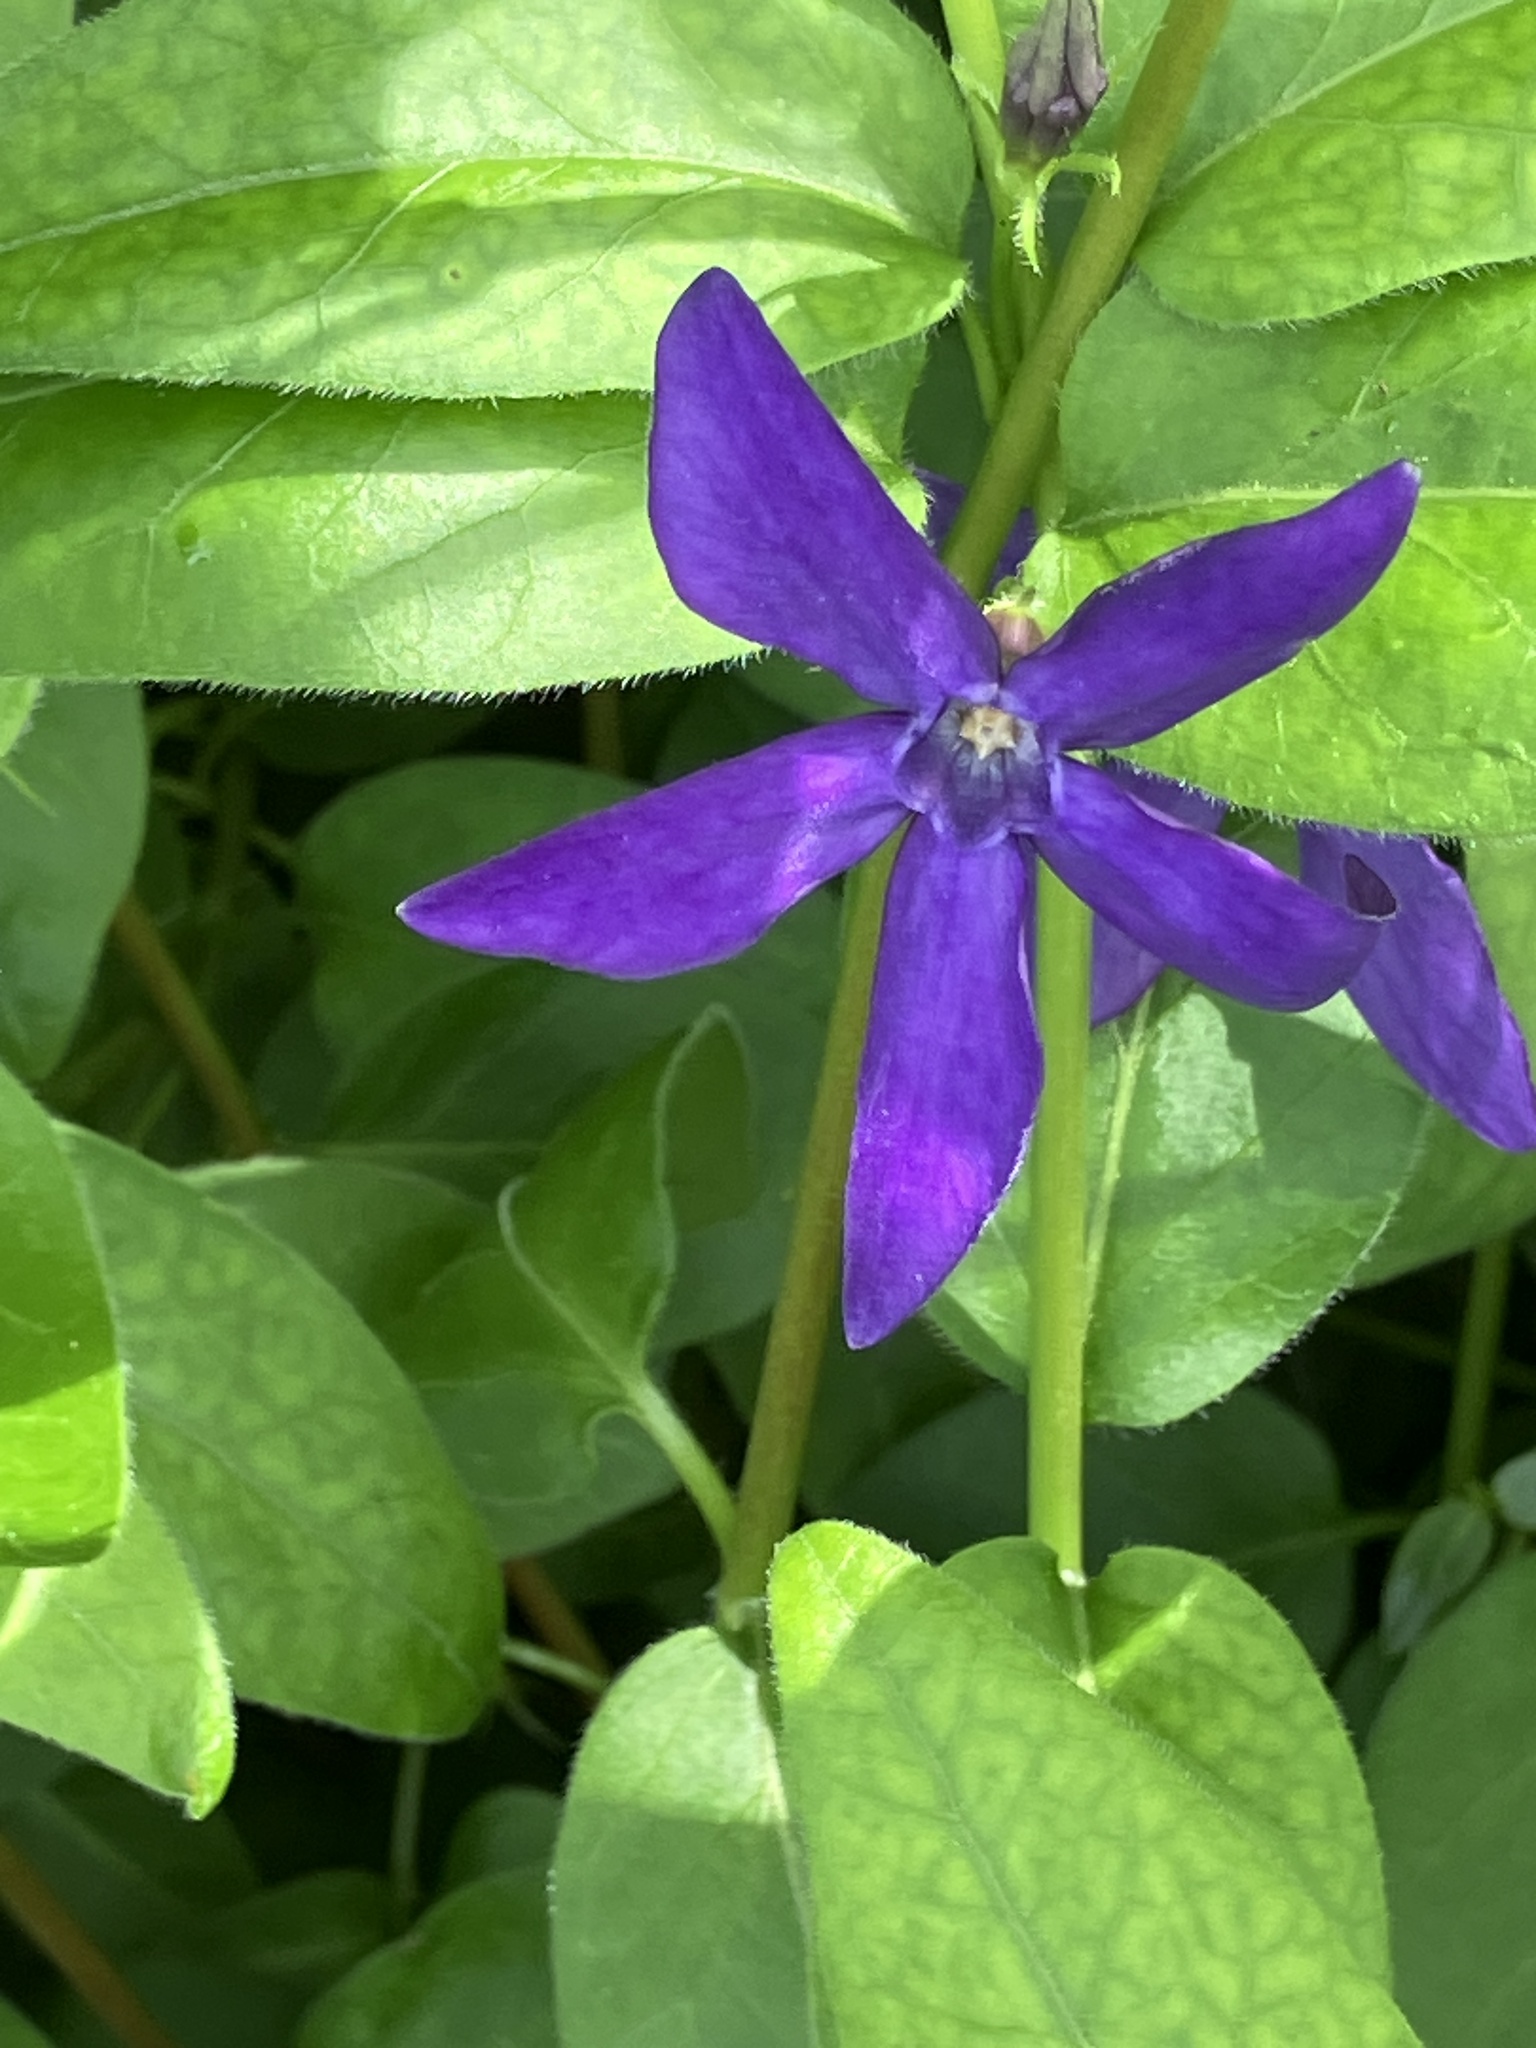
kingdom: Plantae
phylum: Tracheophyta
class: Magnoliopsida
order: Gentianales
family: Apocynaceae
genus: Vinca
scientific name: Vinca major
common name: Greater periwinkle
